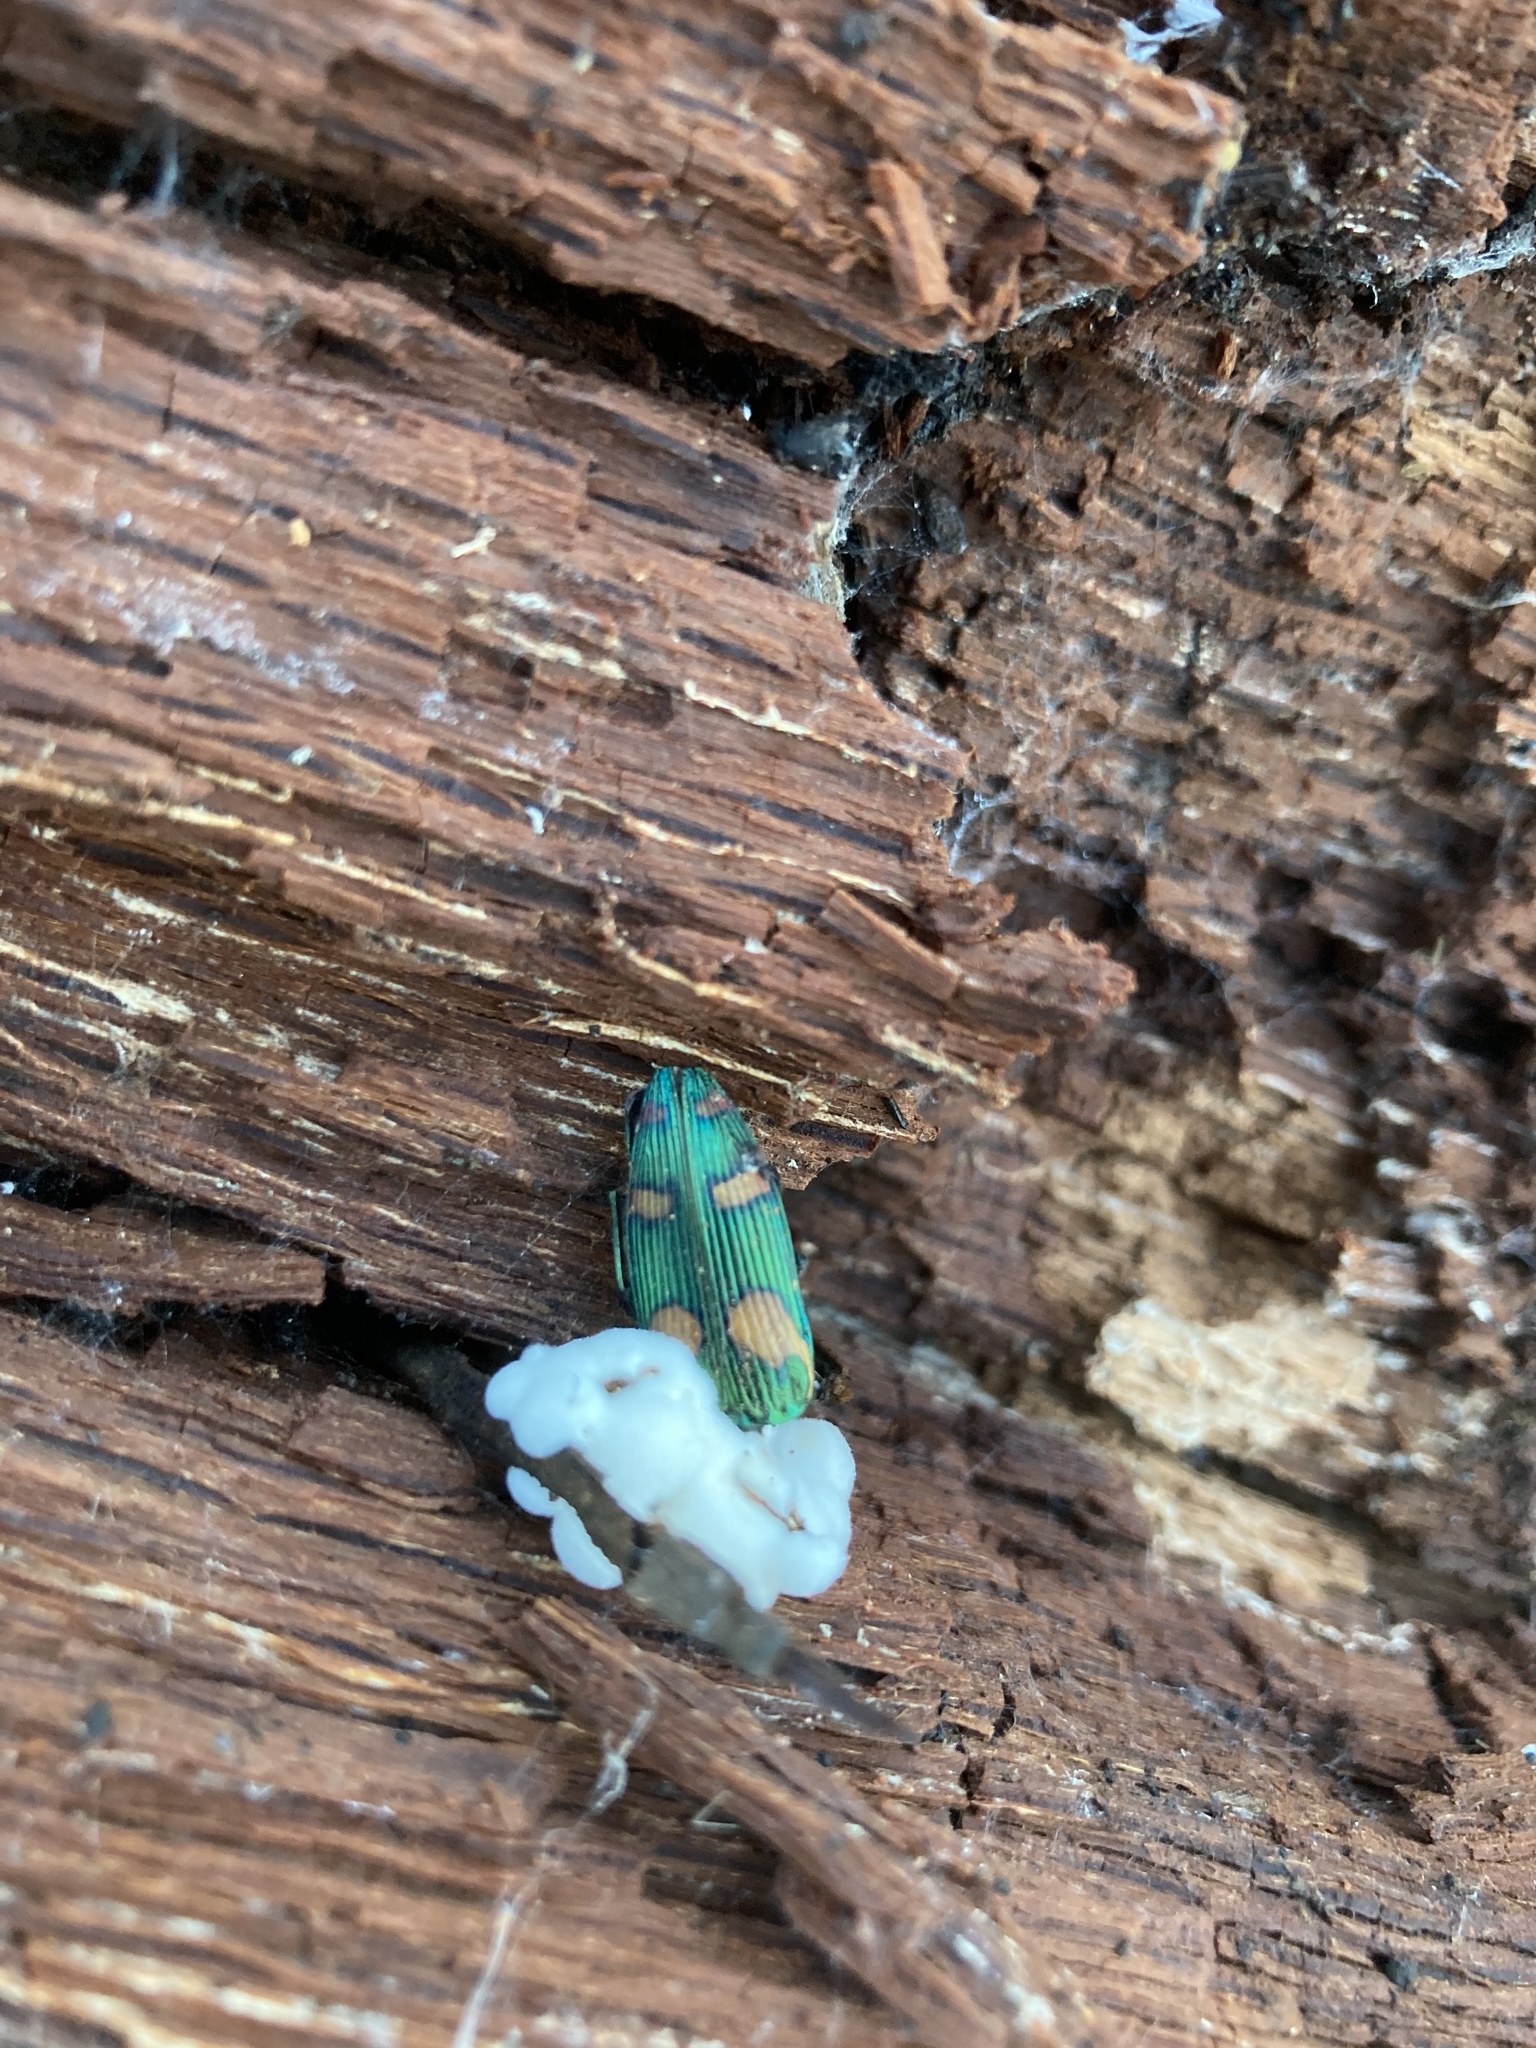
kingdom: Animalia
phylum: Arthropoda
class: Insecta
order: Coleoptera
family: Buprestidae
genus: Buprestis
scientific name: Buprestis gibbsii
